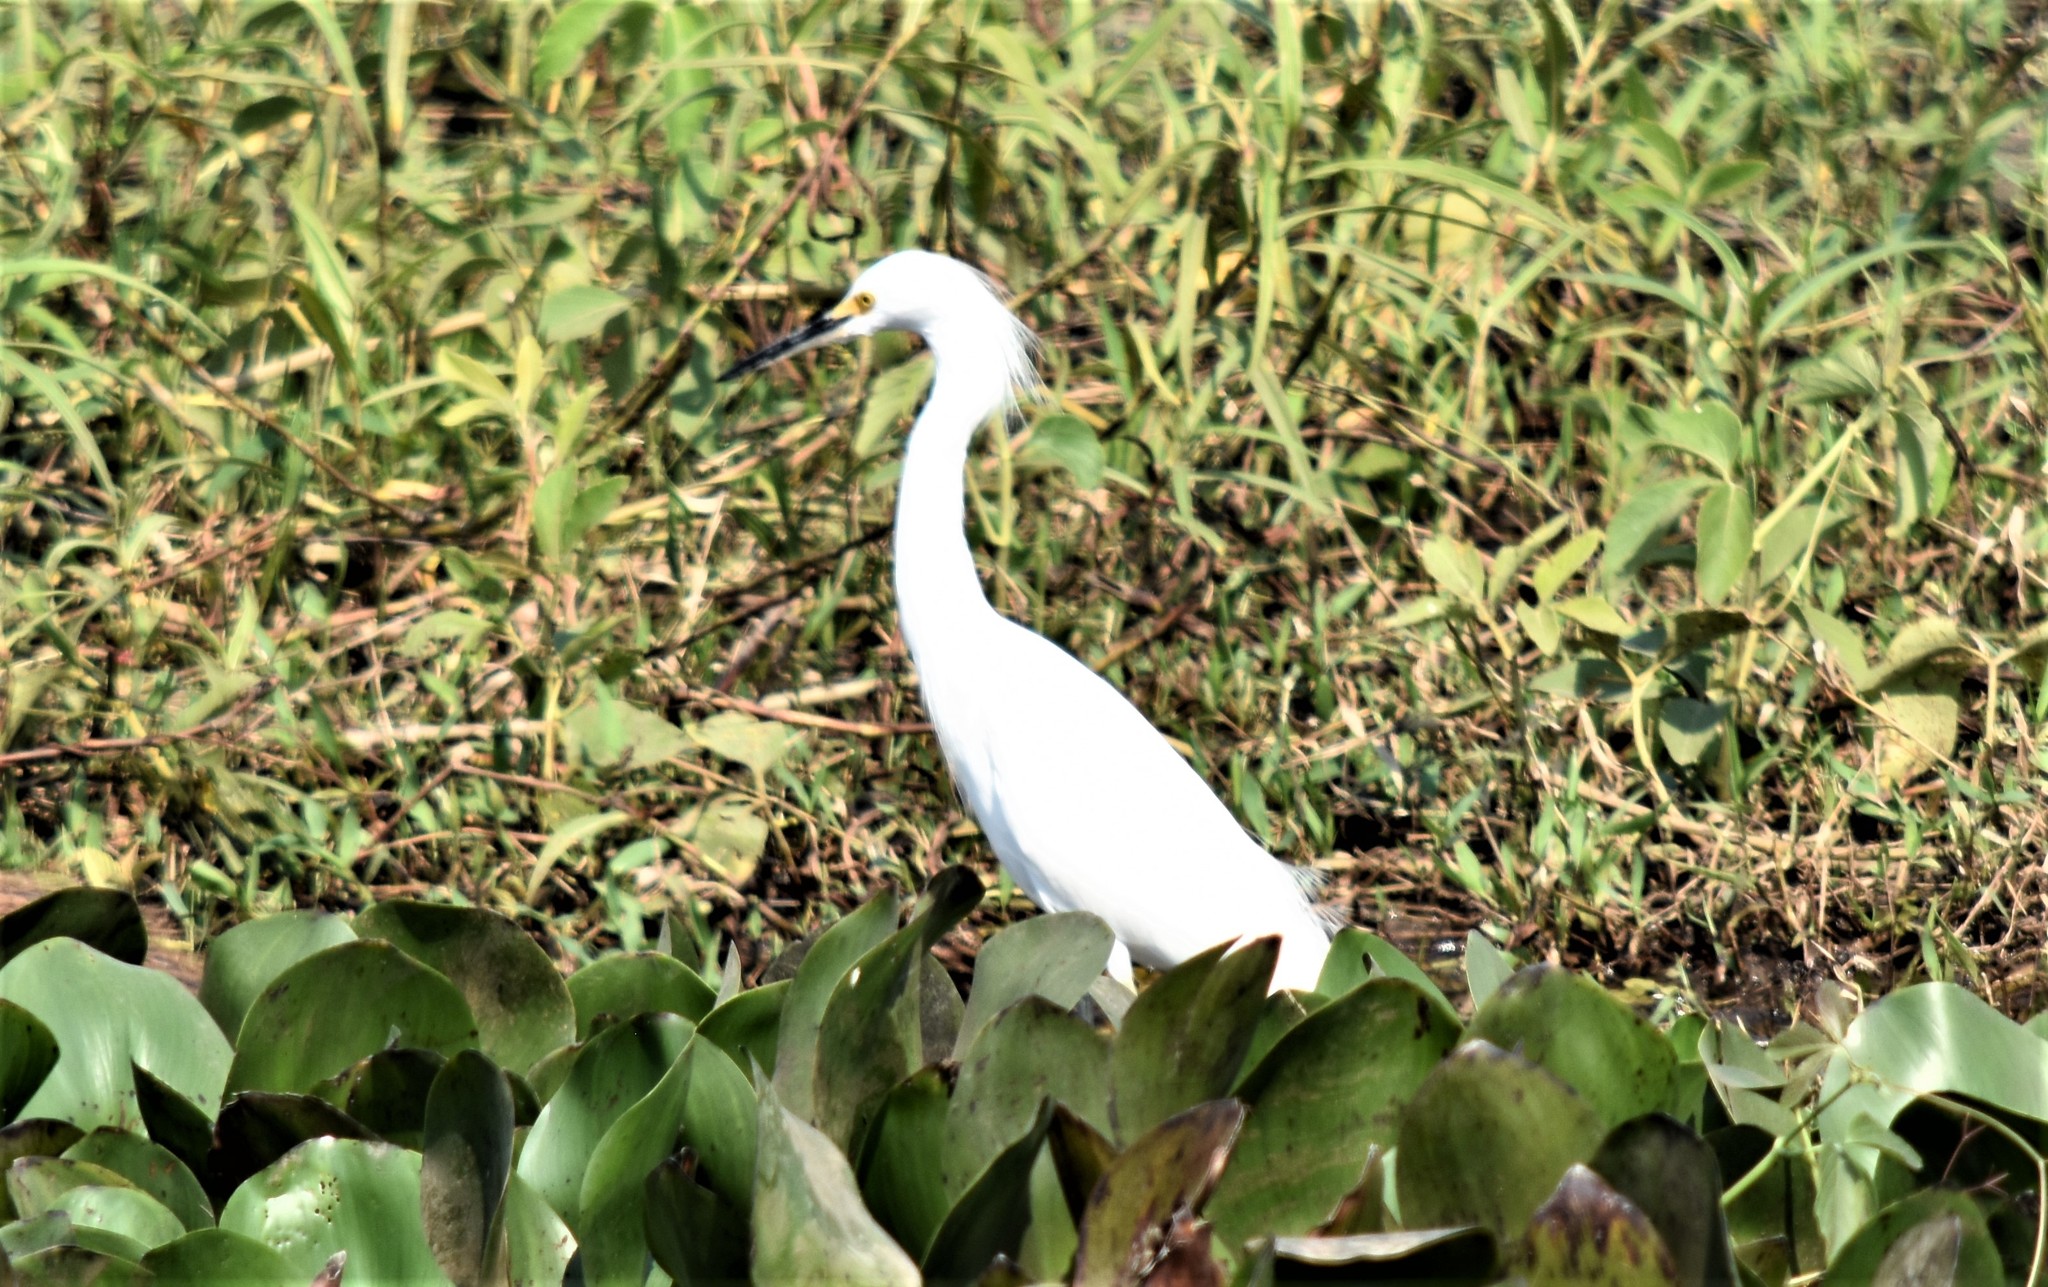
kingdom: Animalia
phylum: Chordata
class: Aves
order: Pelecaniformes
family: Ardeidae
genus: Egretta
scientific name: Egretta thula
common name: Snowy egret
